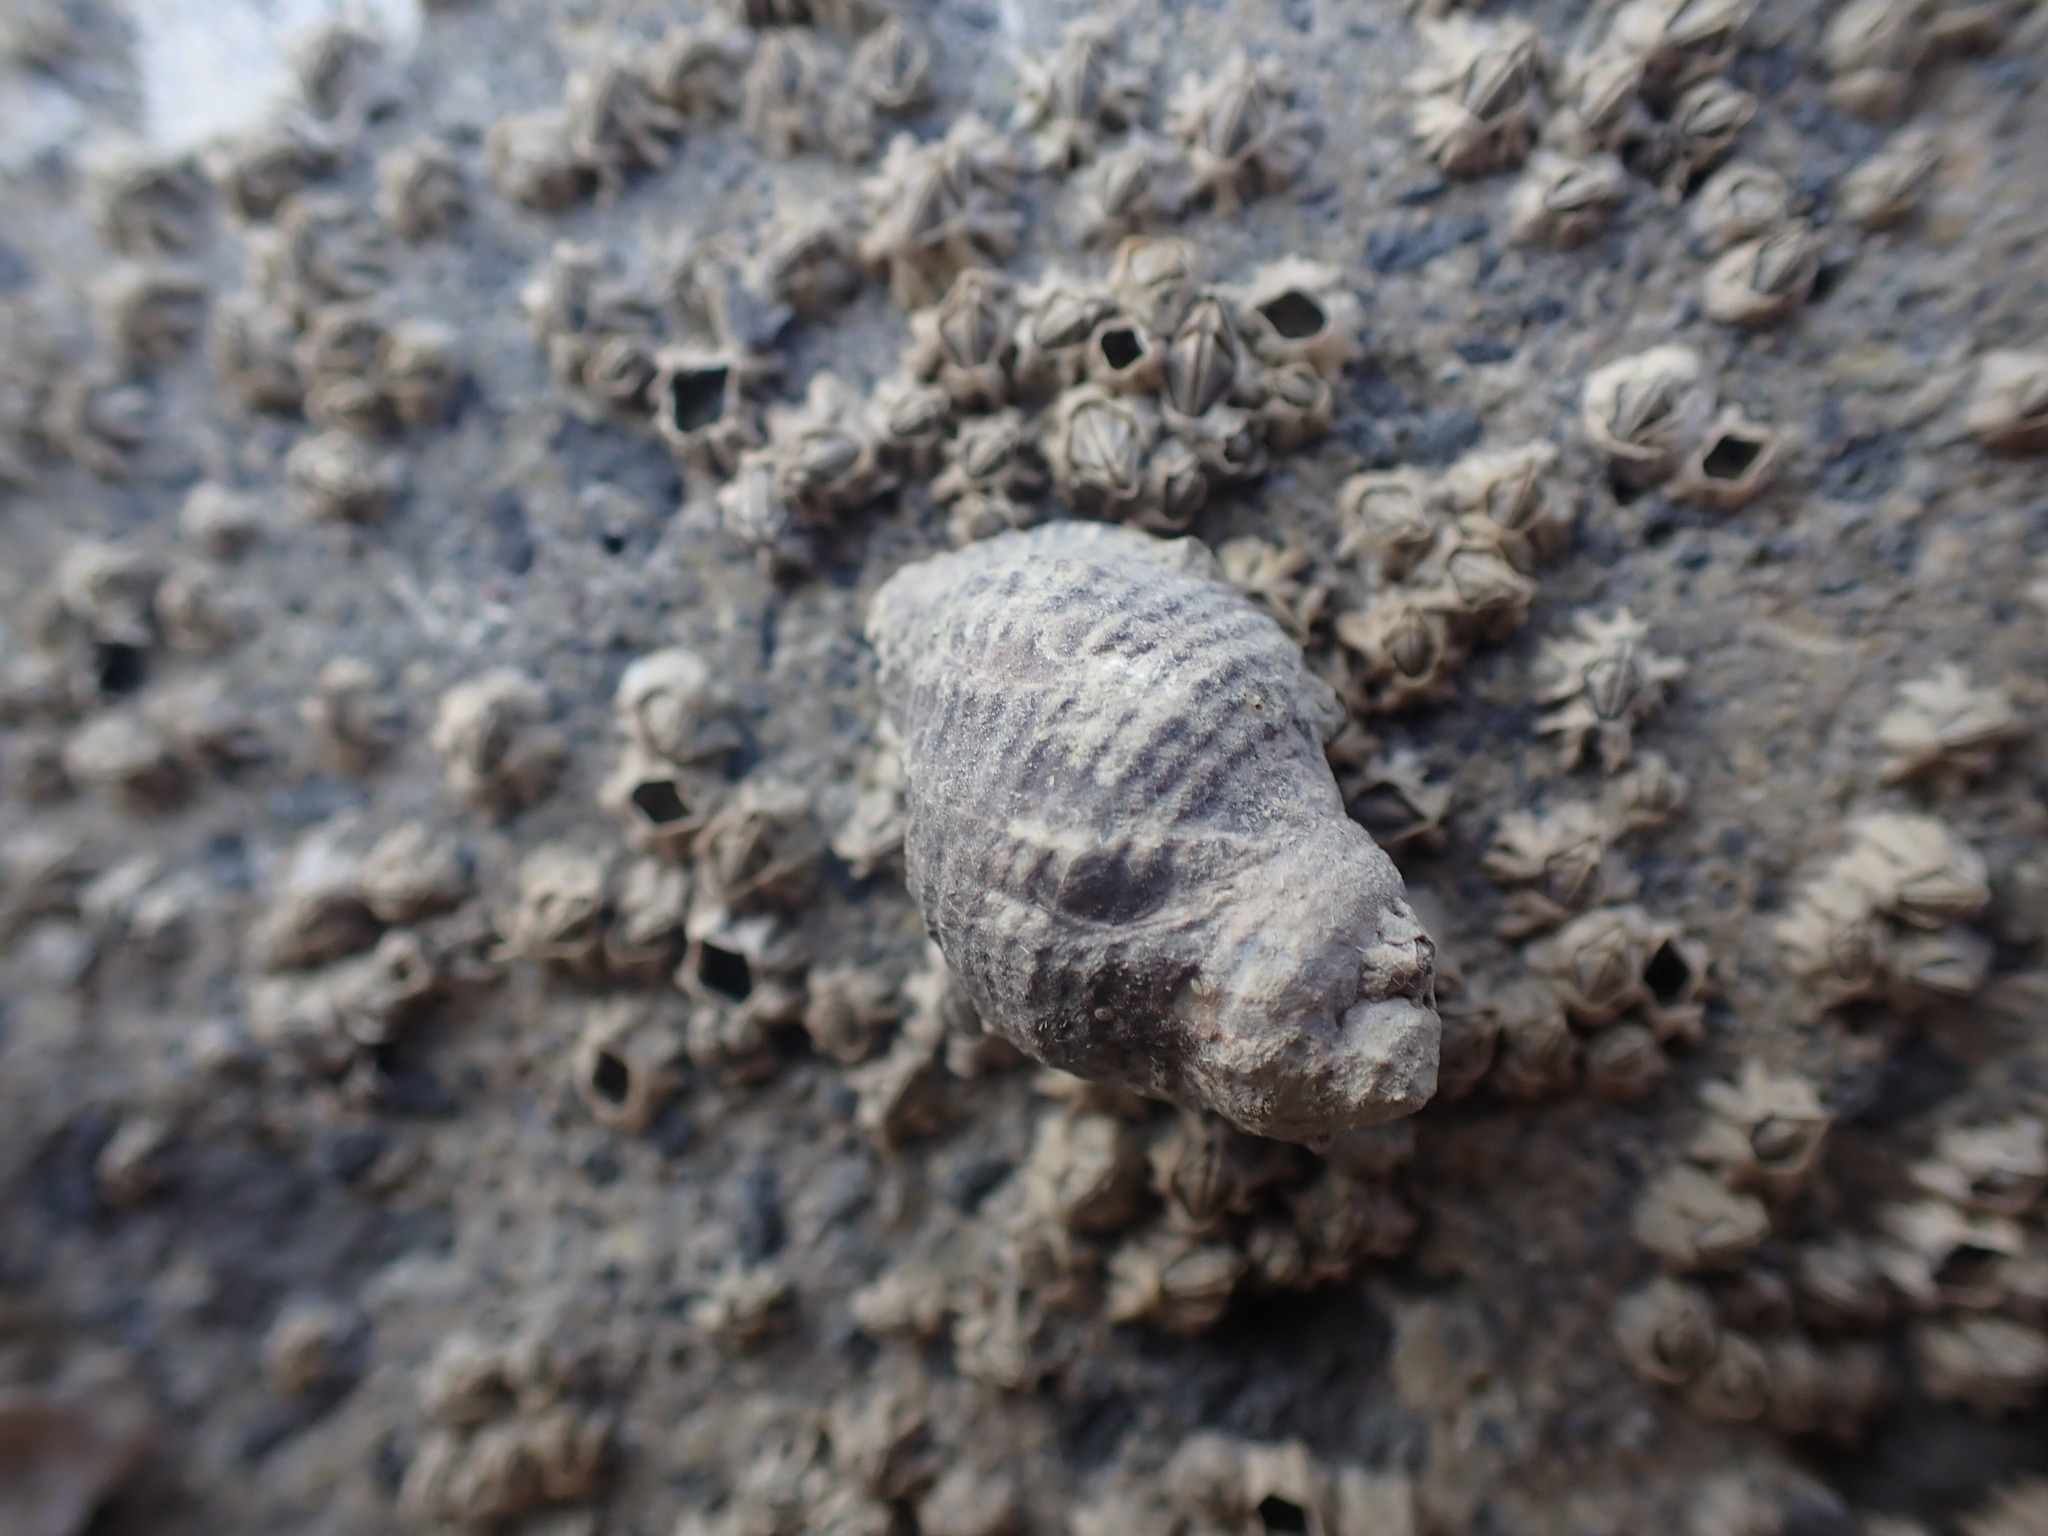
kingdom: Animalia
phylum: Mollusca
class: Gastropoda
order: Neogastropoda
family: Muricidae
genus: Haustrum
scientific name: Haustrum albomarginatum
